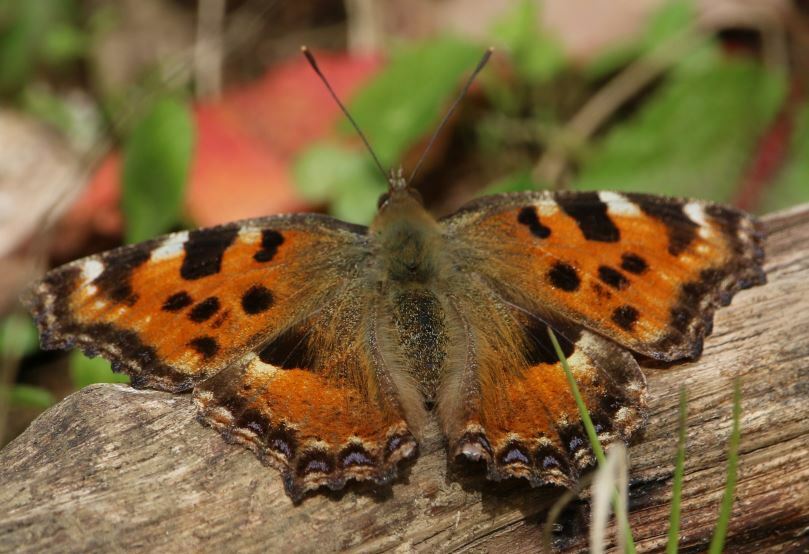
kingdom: Animalia
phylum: Arthropoda
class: Insecta
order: Lepidoptera
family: Nymphalidae
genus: Nymphalis
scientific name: Nymphalis polychloros
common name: Large tortoiseshell
